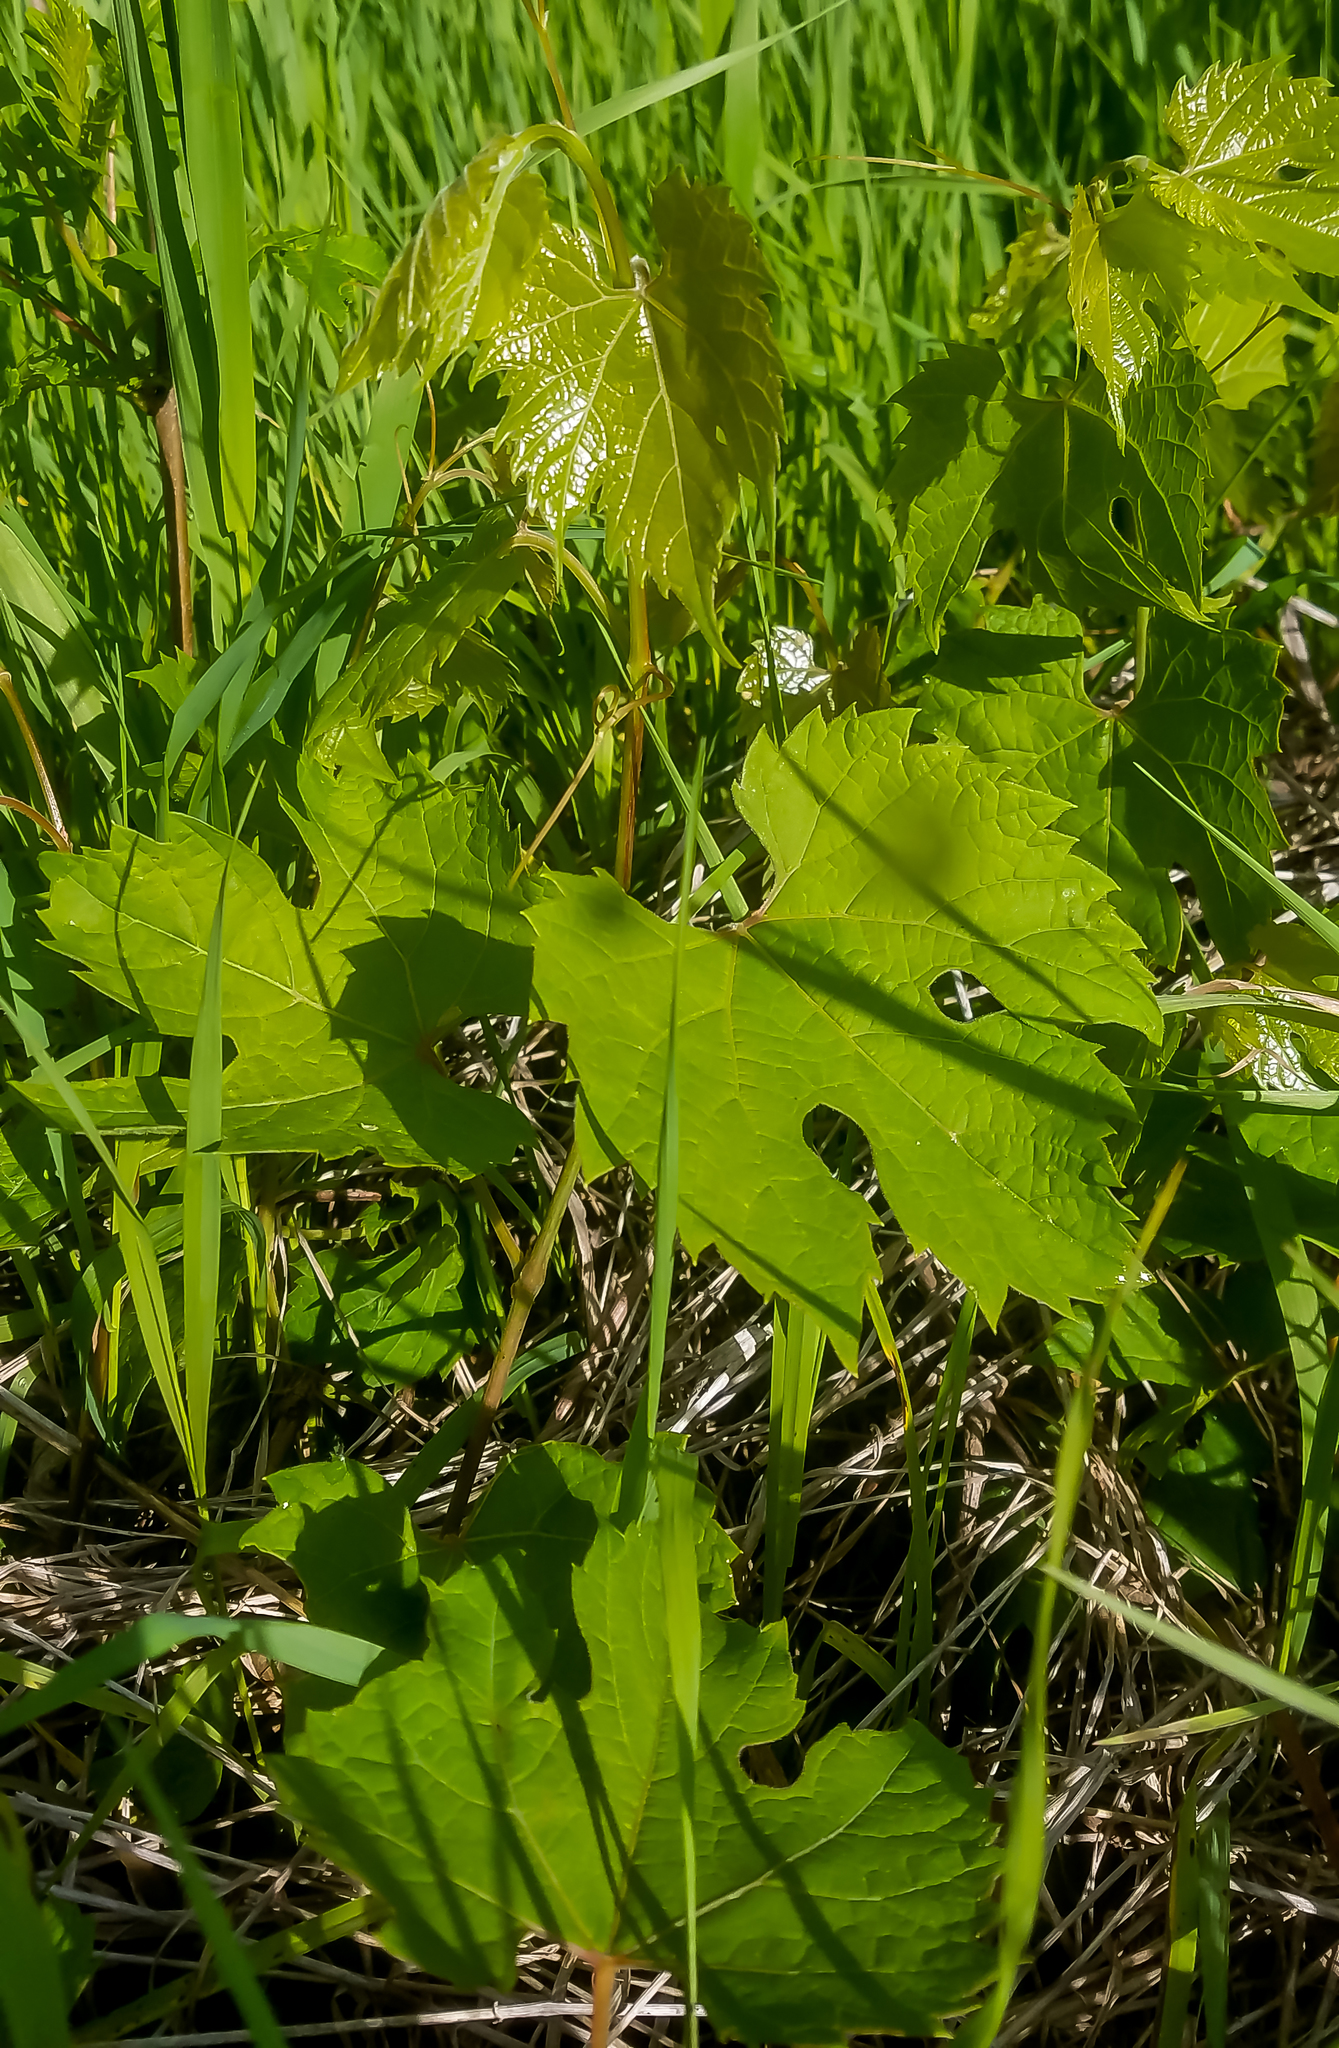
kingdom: Plantae
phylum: Tracheophyta
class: Magnoliopsida
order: Vitales
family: Vitaceae
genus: Vitis
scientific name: Vitis riparia
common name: Frost grape
